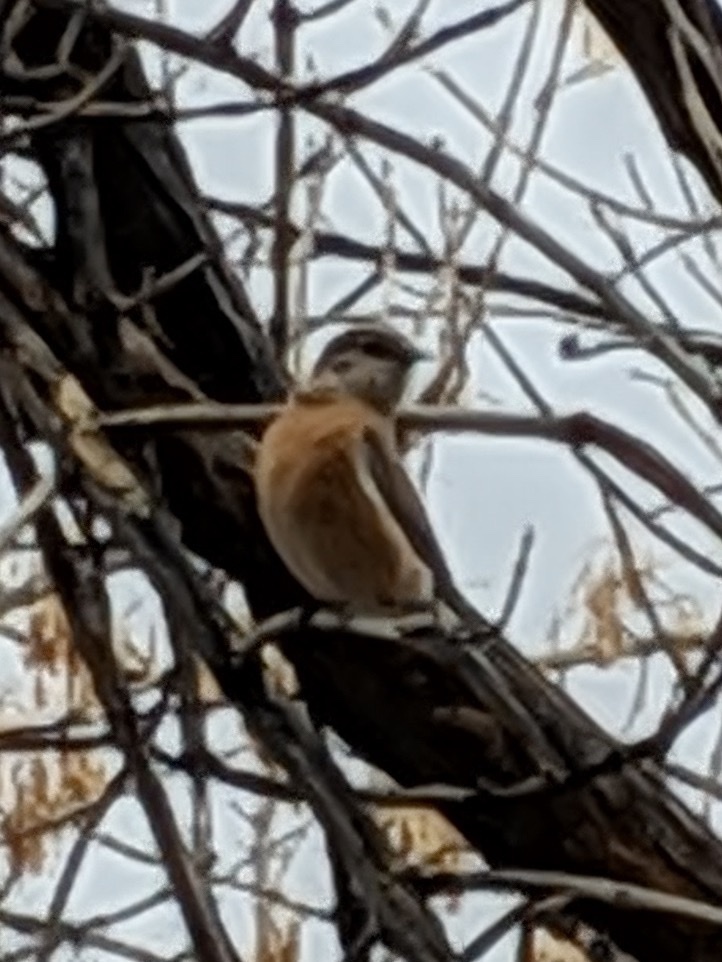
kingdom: Animalia
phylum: Chordata
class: Aves
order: Passeriformes
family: Turdidae
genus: Sialia
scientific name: Sialia mexicana
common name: Western bluebird
